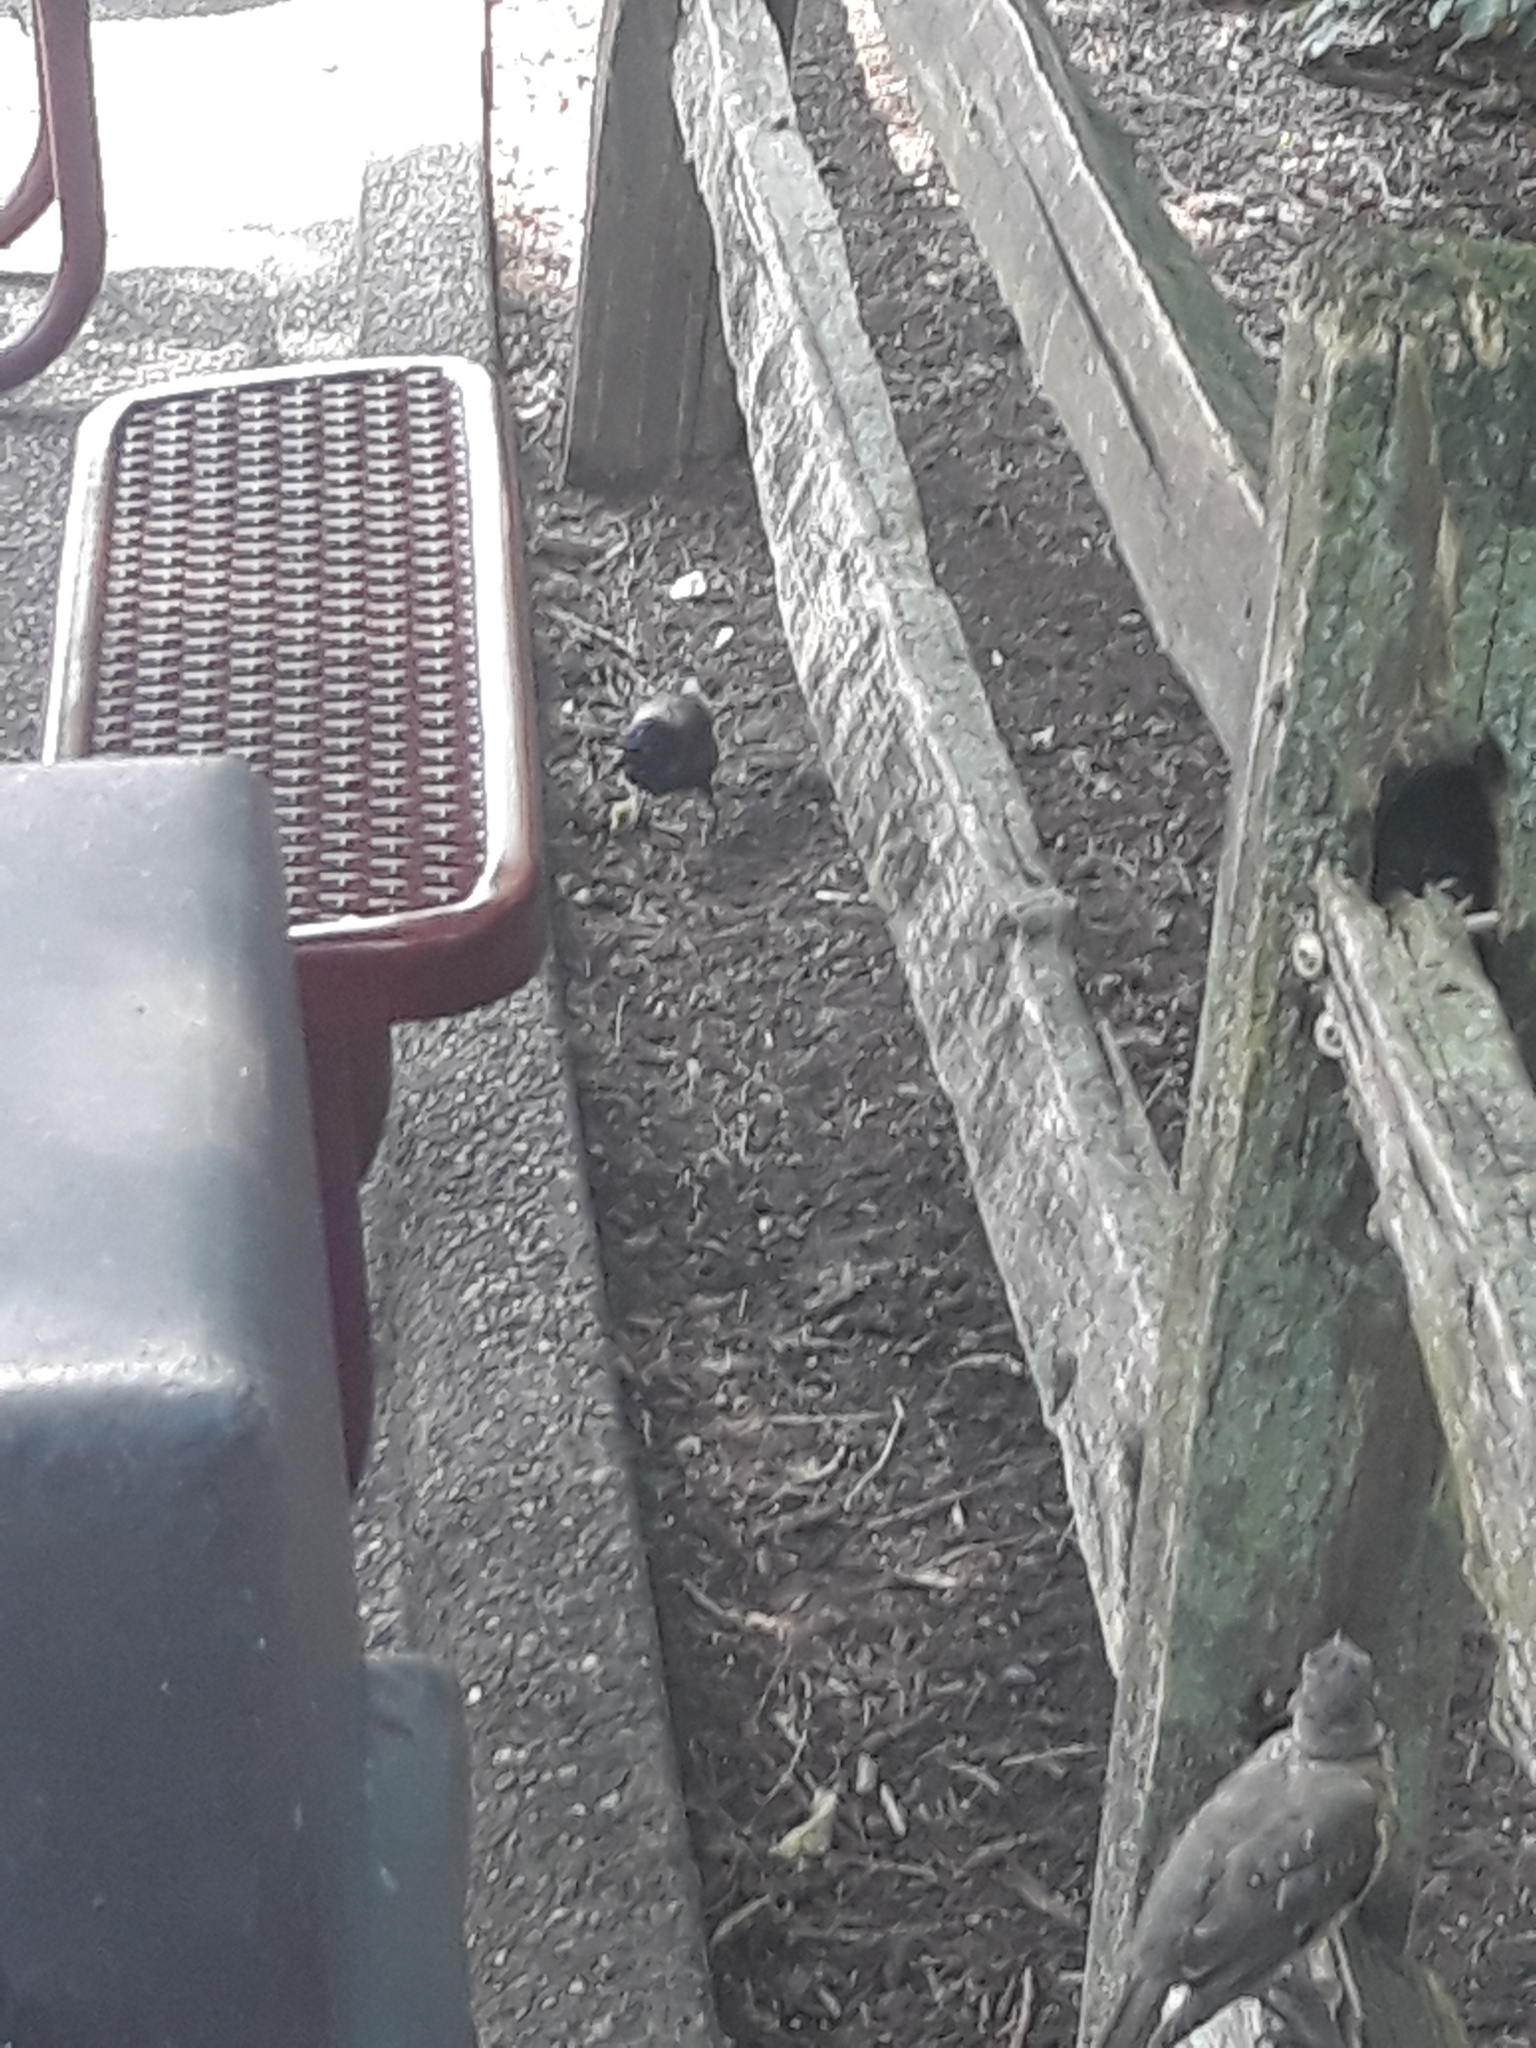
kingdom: Animalia
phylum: Chordata
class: Aves
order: Passeriformes
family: Icteridae
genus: Quiscalus
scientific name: Quiscalus quiscula
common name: Common grackle
